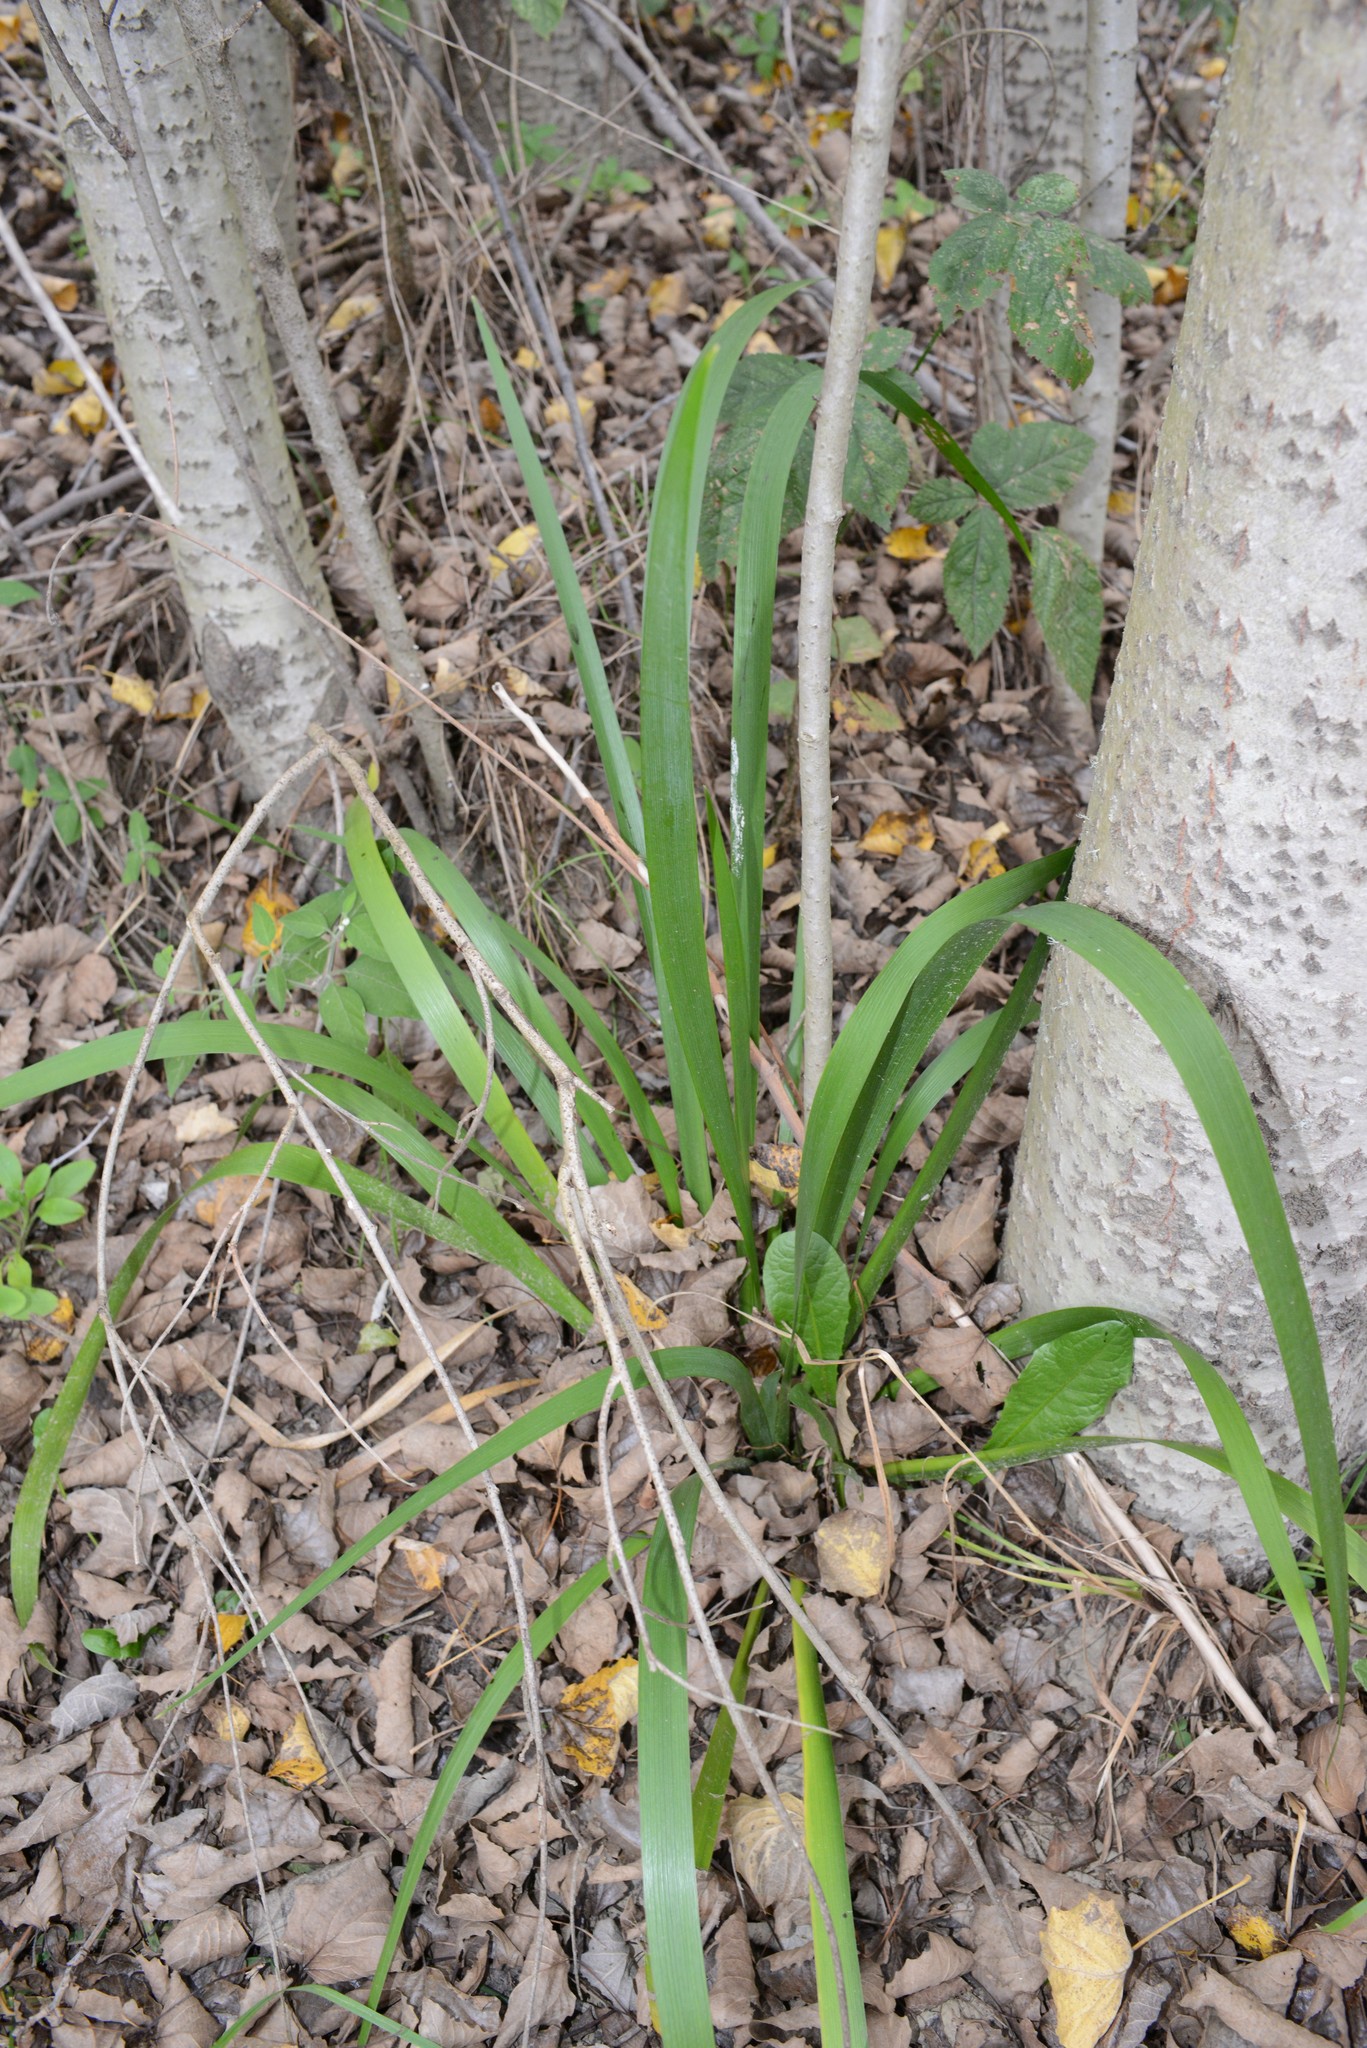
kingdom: Plantae
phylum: Tracheophyta
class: Liliopsida
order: Asparagales
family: Iridaceae
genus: Iris
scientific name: Iris foetidissima
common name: Stinking iris
